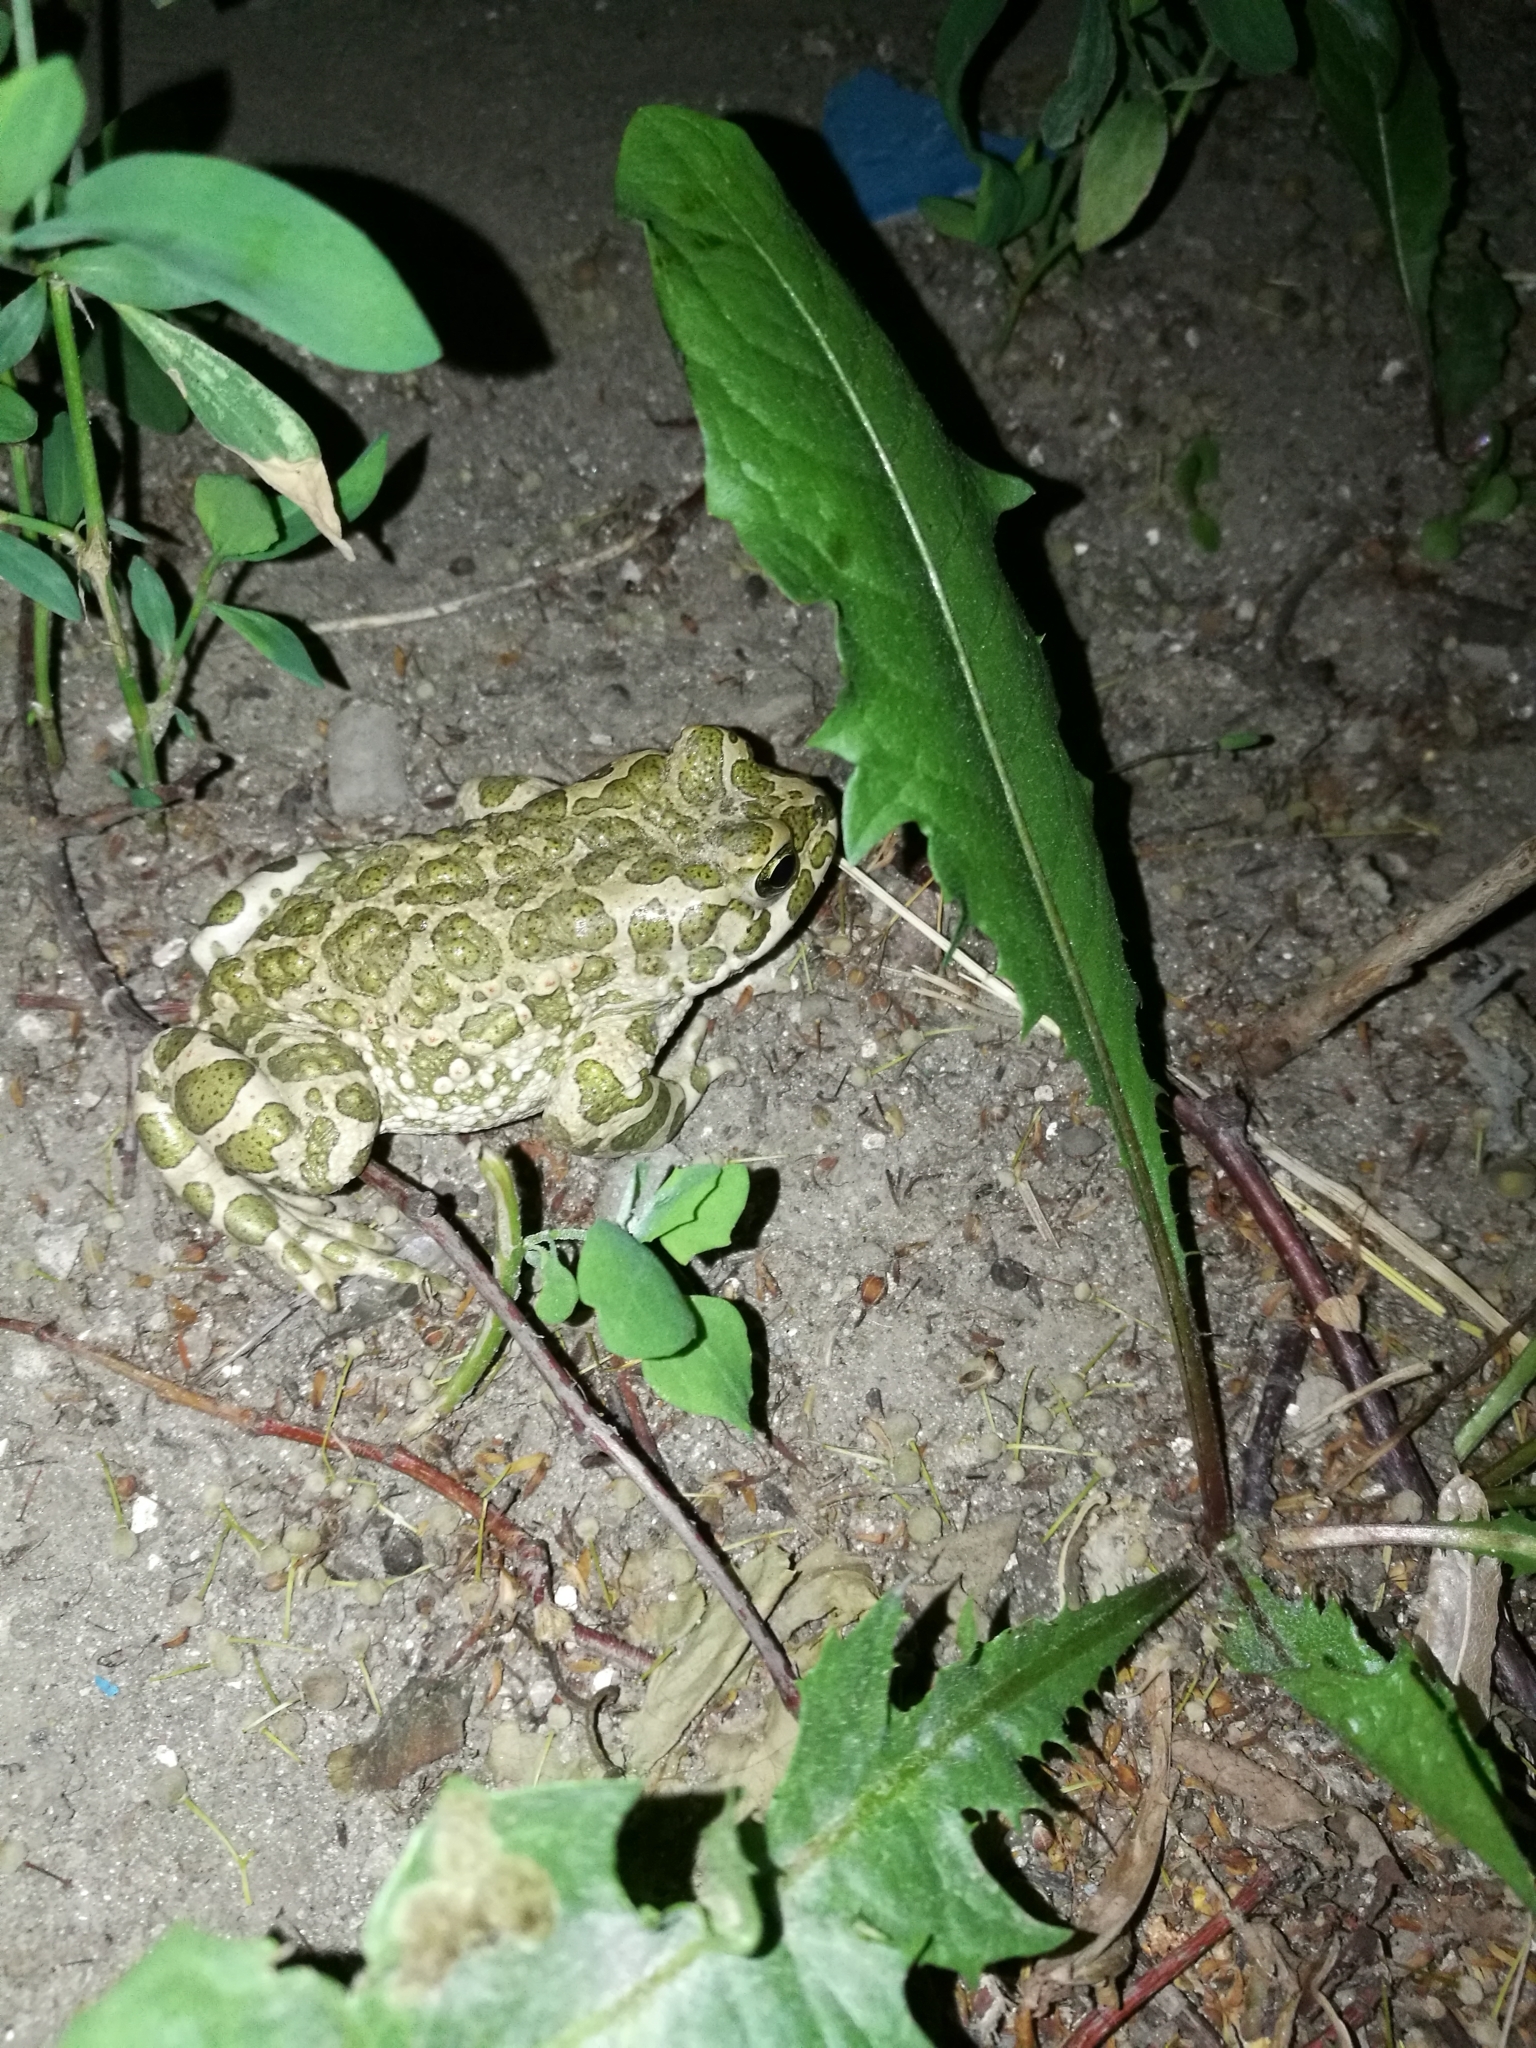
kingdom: Animalia
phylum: Chordata
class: Amphibia
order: Anura
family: Bufonidae
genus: Bufotes
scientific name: Bufotes viridis
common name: European green toad
